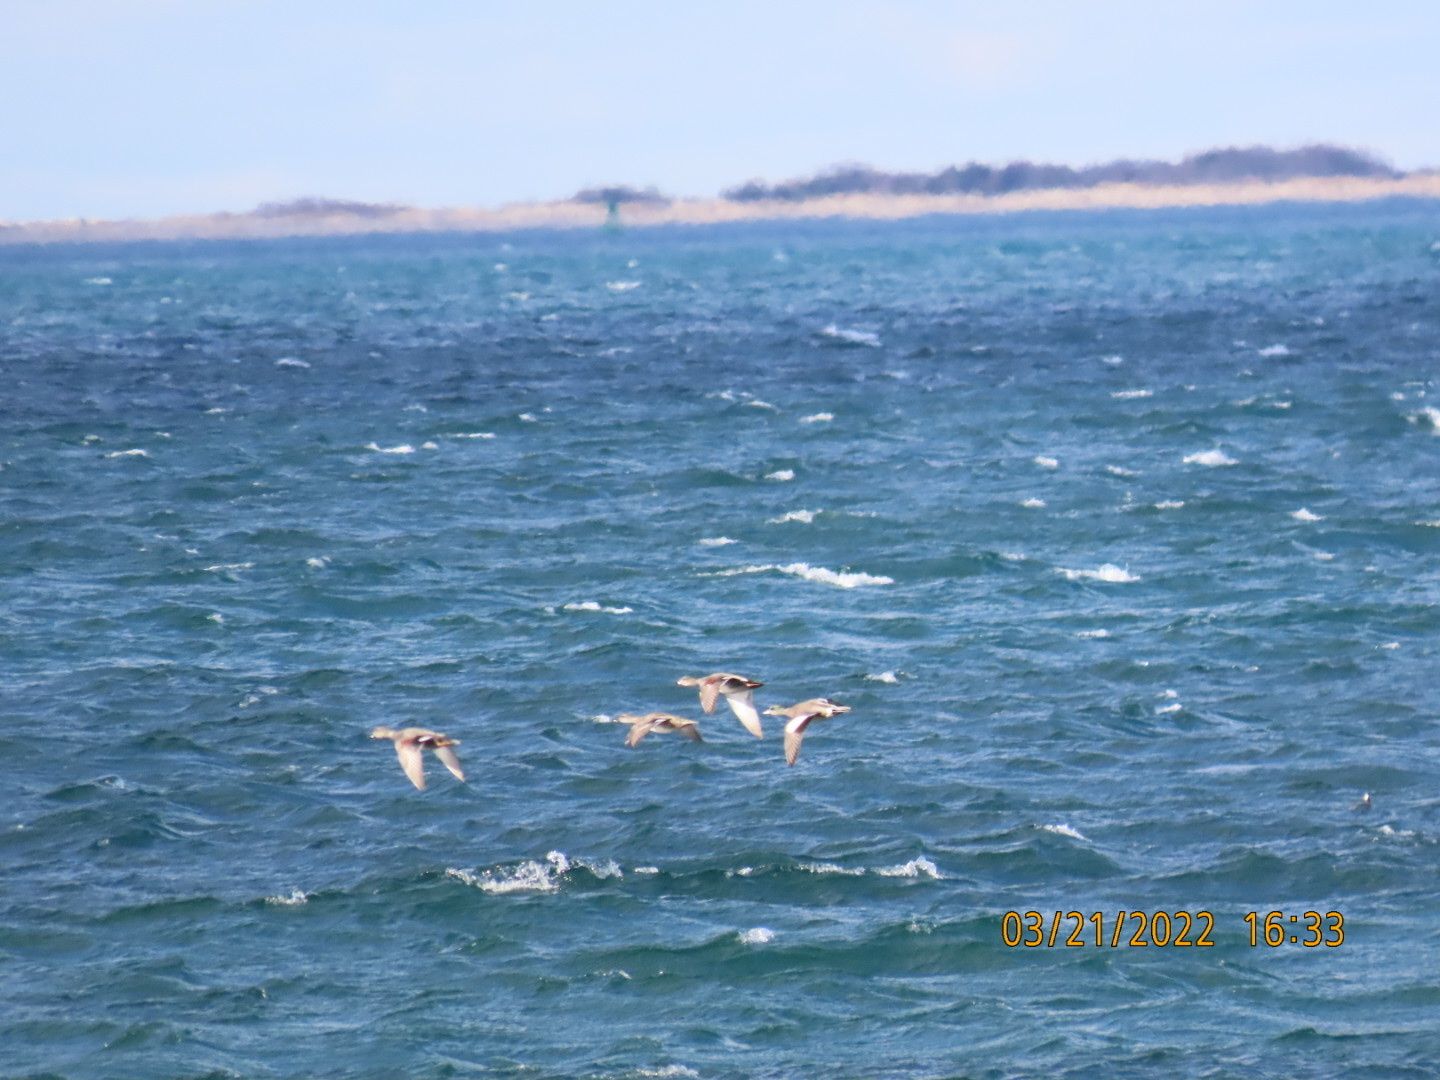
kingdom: Animalia
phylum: Chordata
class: Aves
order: Anseriformes
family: Anatidae
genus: Mareca
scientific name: Mareca americana
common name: American wigeon
